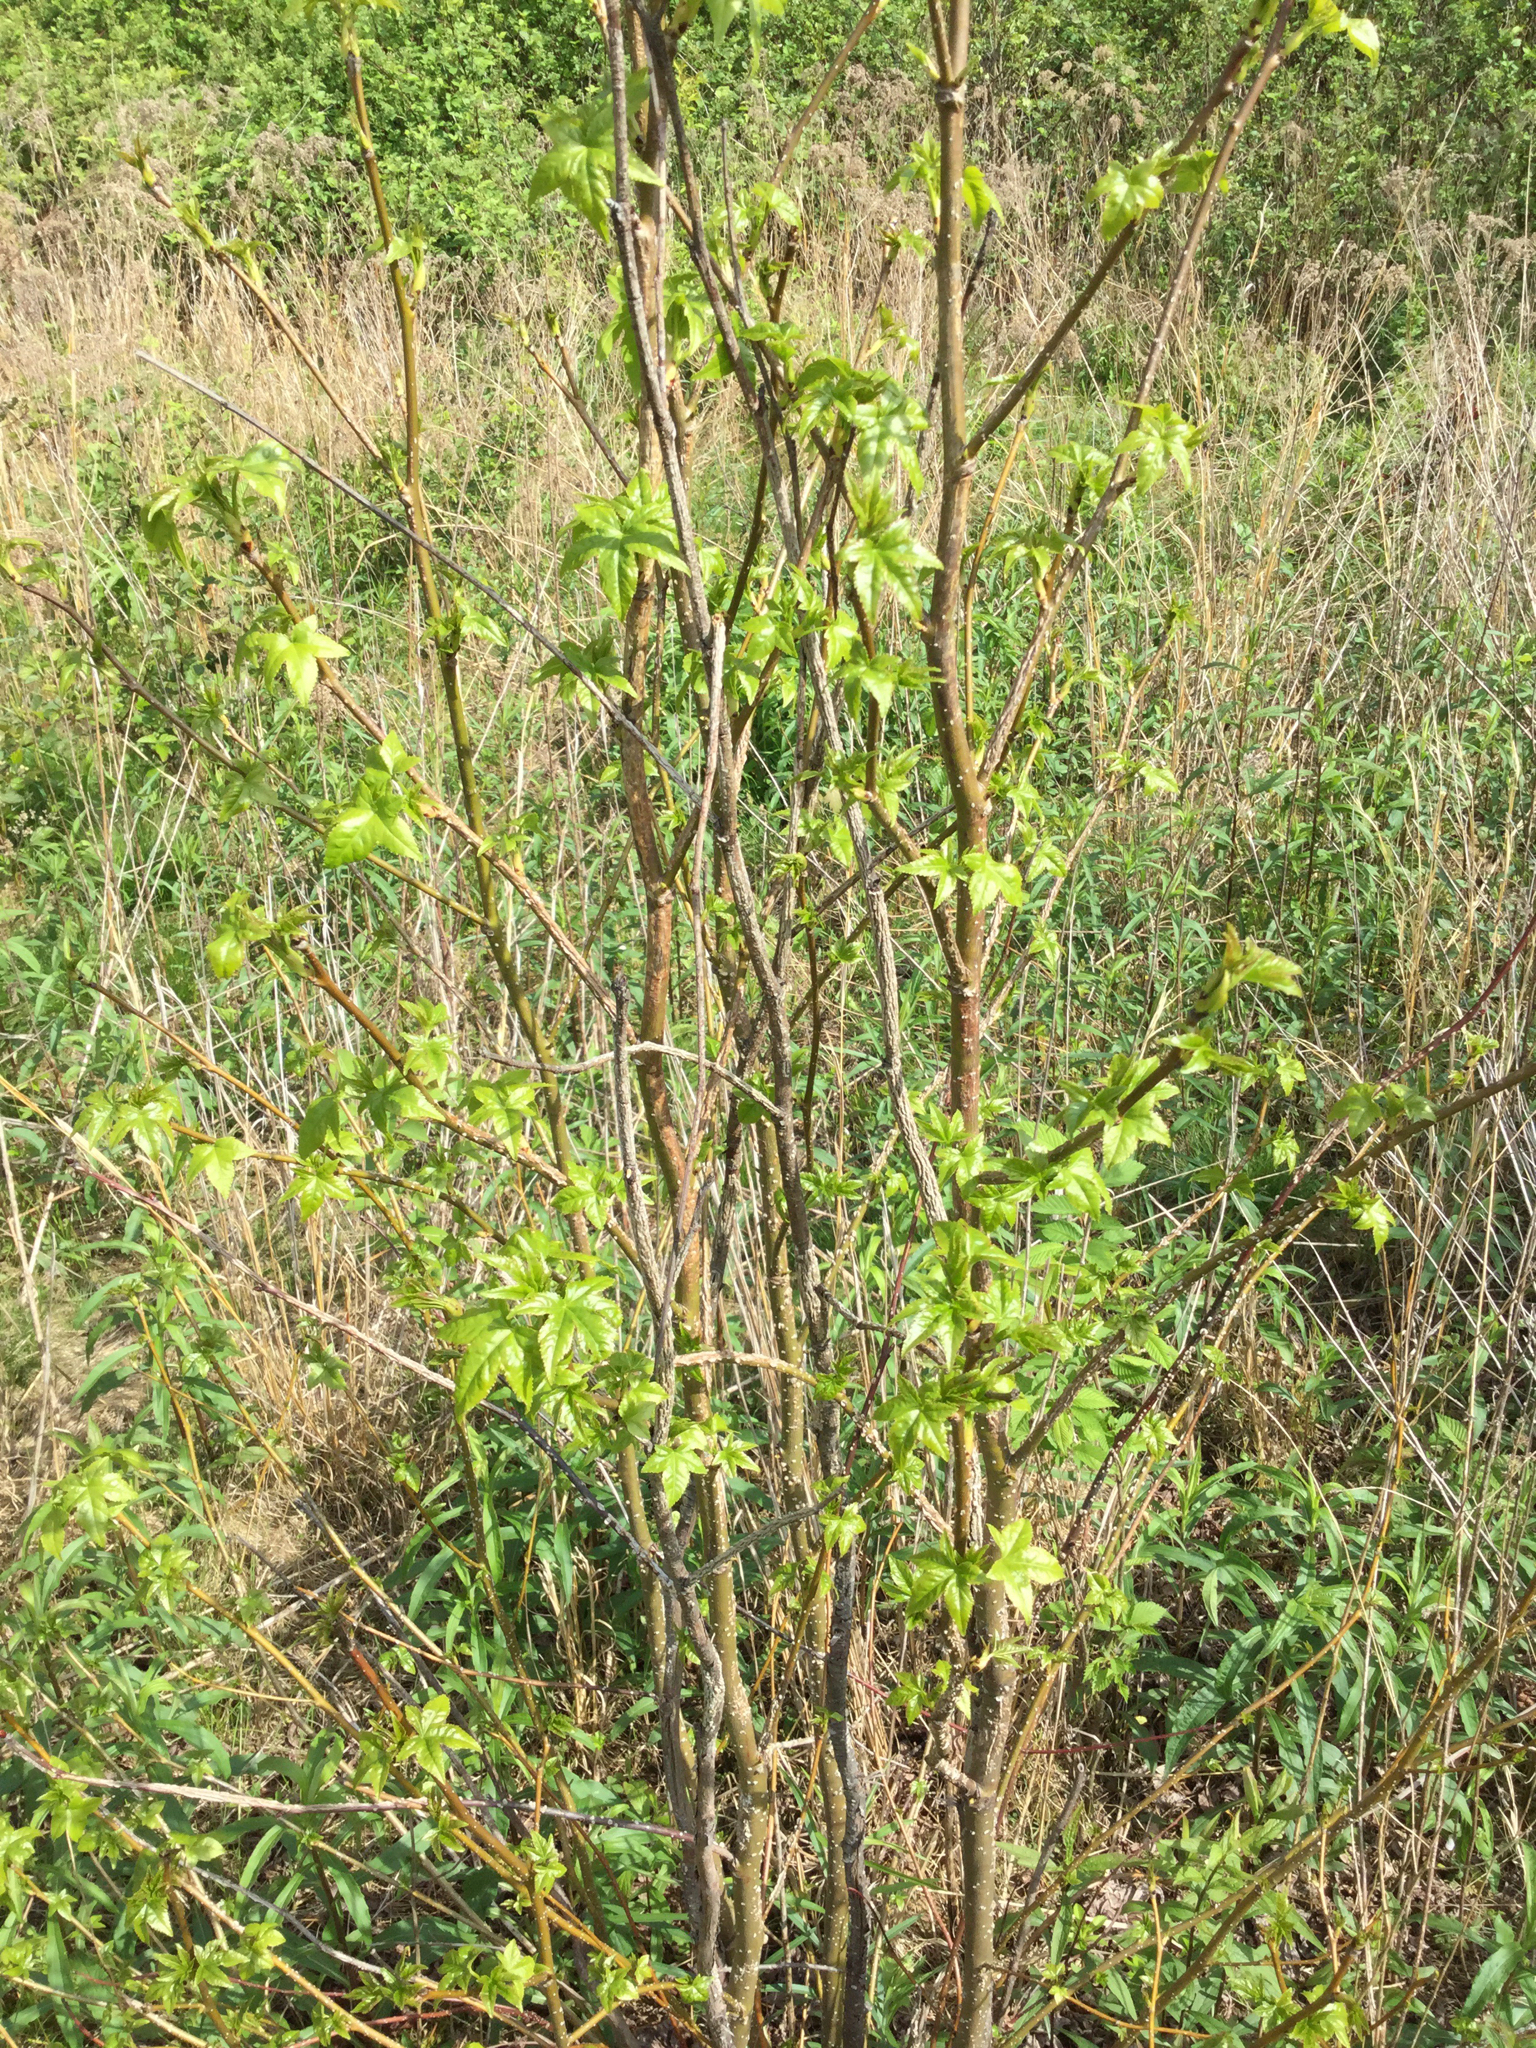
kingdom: Plantae
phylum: Tracheophyta
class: Magnoliopsida
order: Saxifragales
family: Altingiaceae
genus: Liquidambar
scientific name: Liquidambar styraciflua
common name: Sweet gum
